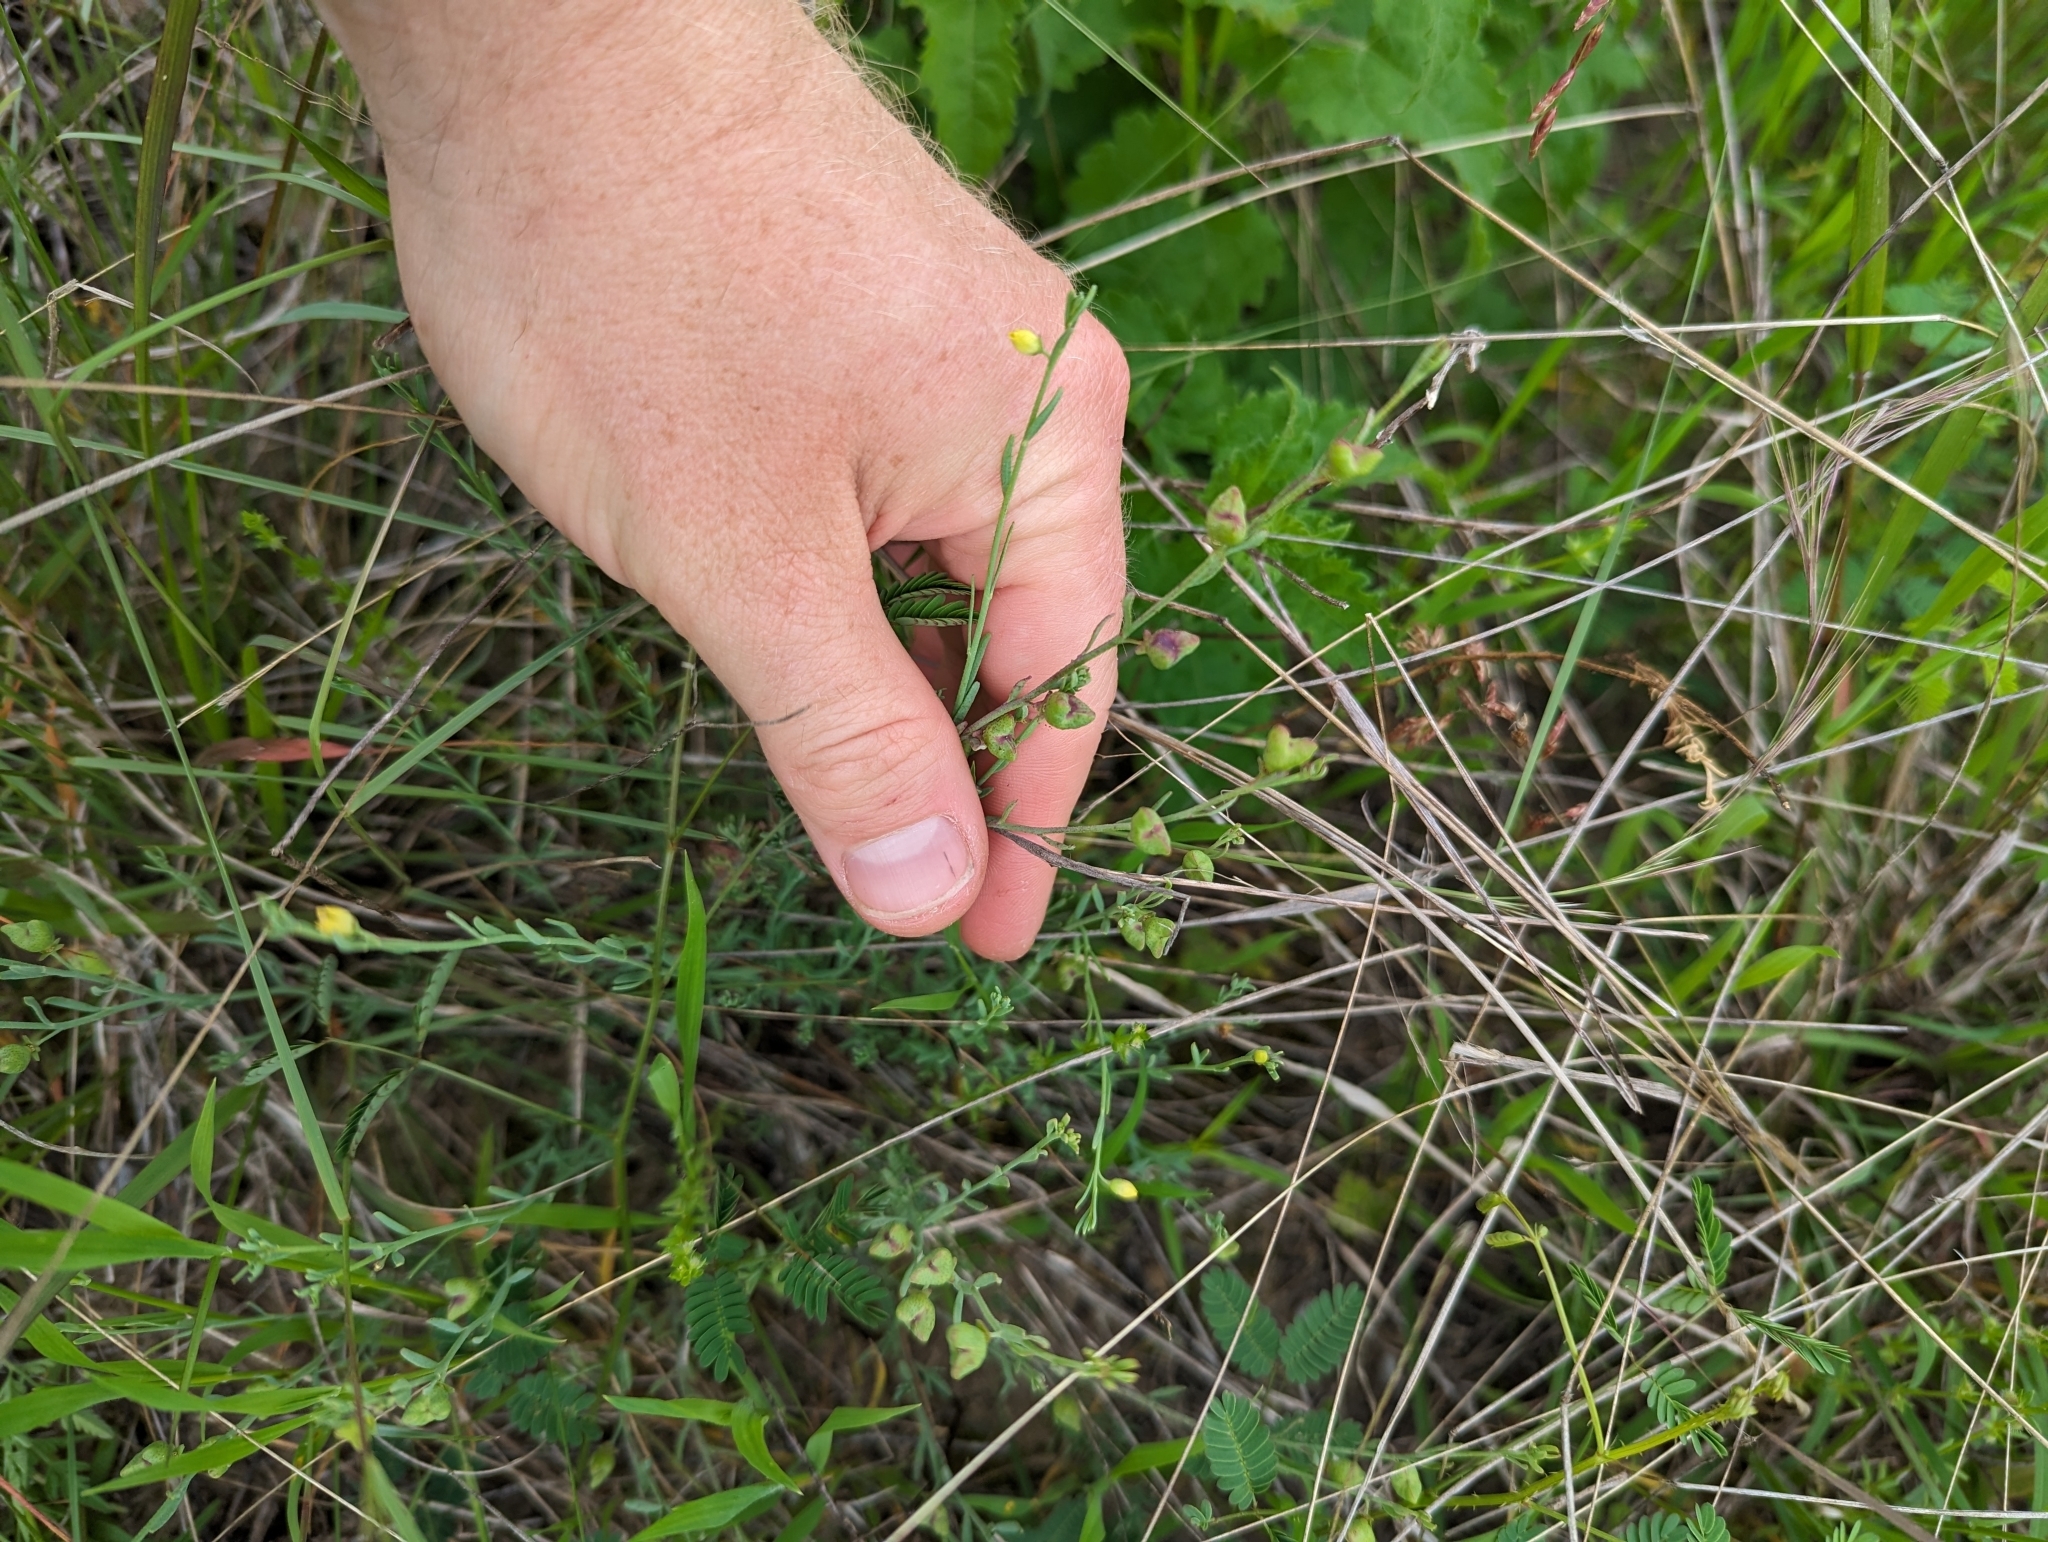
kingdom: Plantae
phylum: Tracheophyta
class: Magnoliopsida
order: Sapindales
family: Rutaceae
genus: Thamnosma
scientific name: Thamnosma texana
